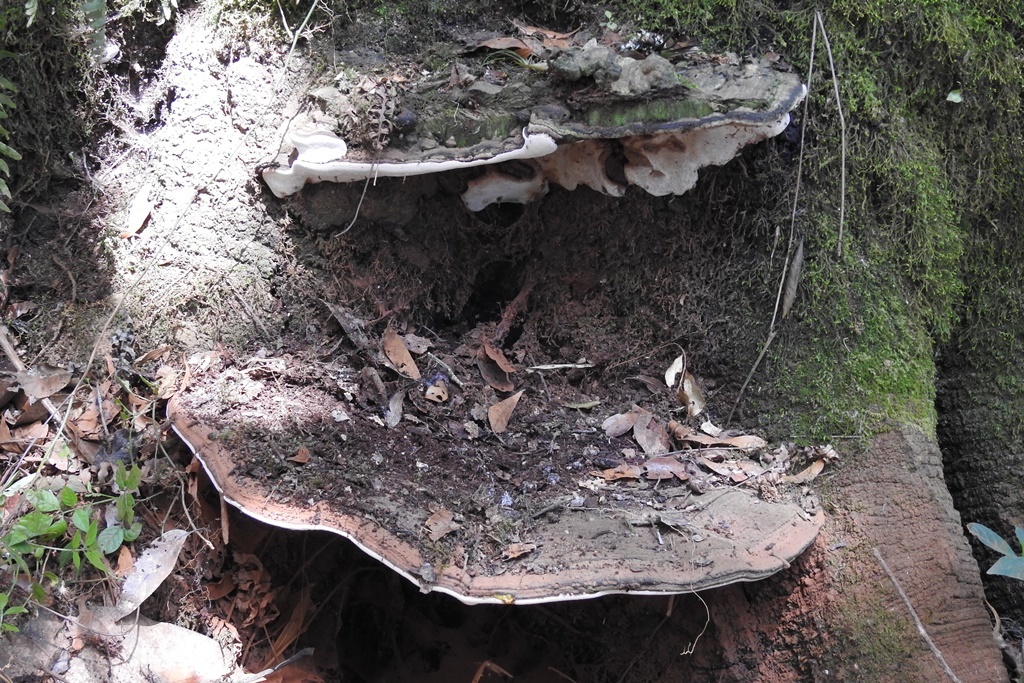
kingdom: Fungi
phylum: Basidiomycota
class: Agaricomycetes
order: Polyporales
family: Polyporaceae
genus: Ganoderma
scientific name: Ganoderma applanatum
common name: Artist's bracket
